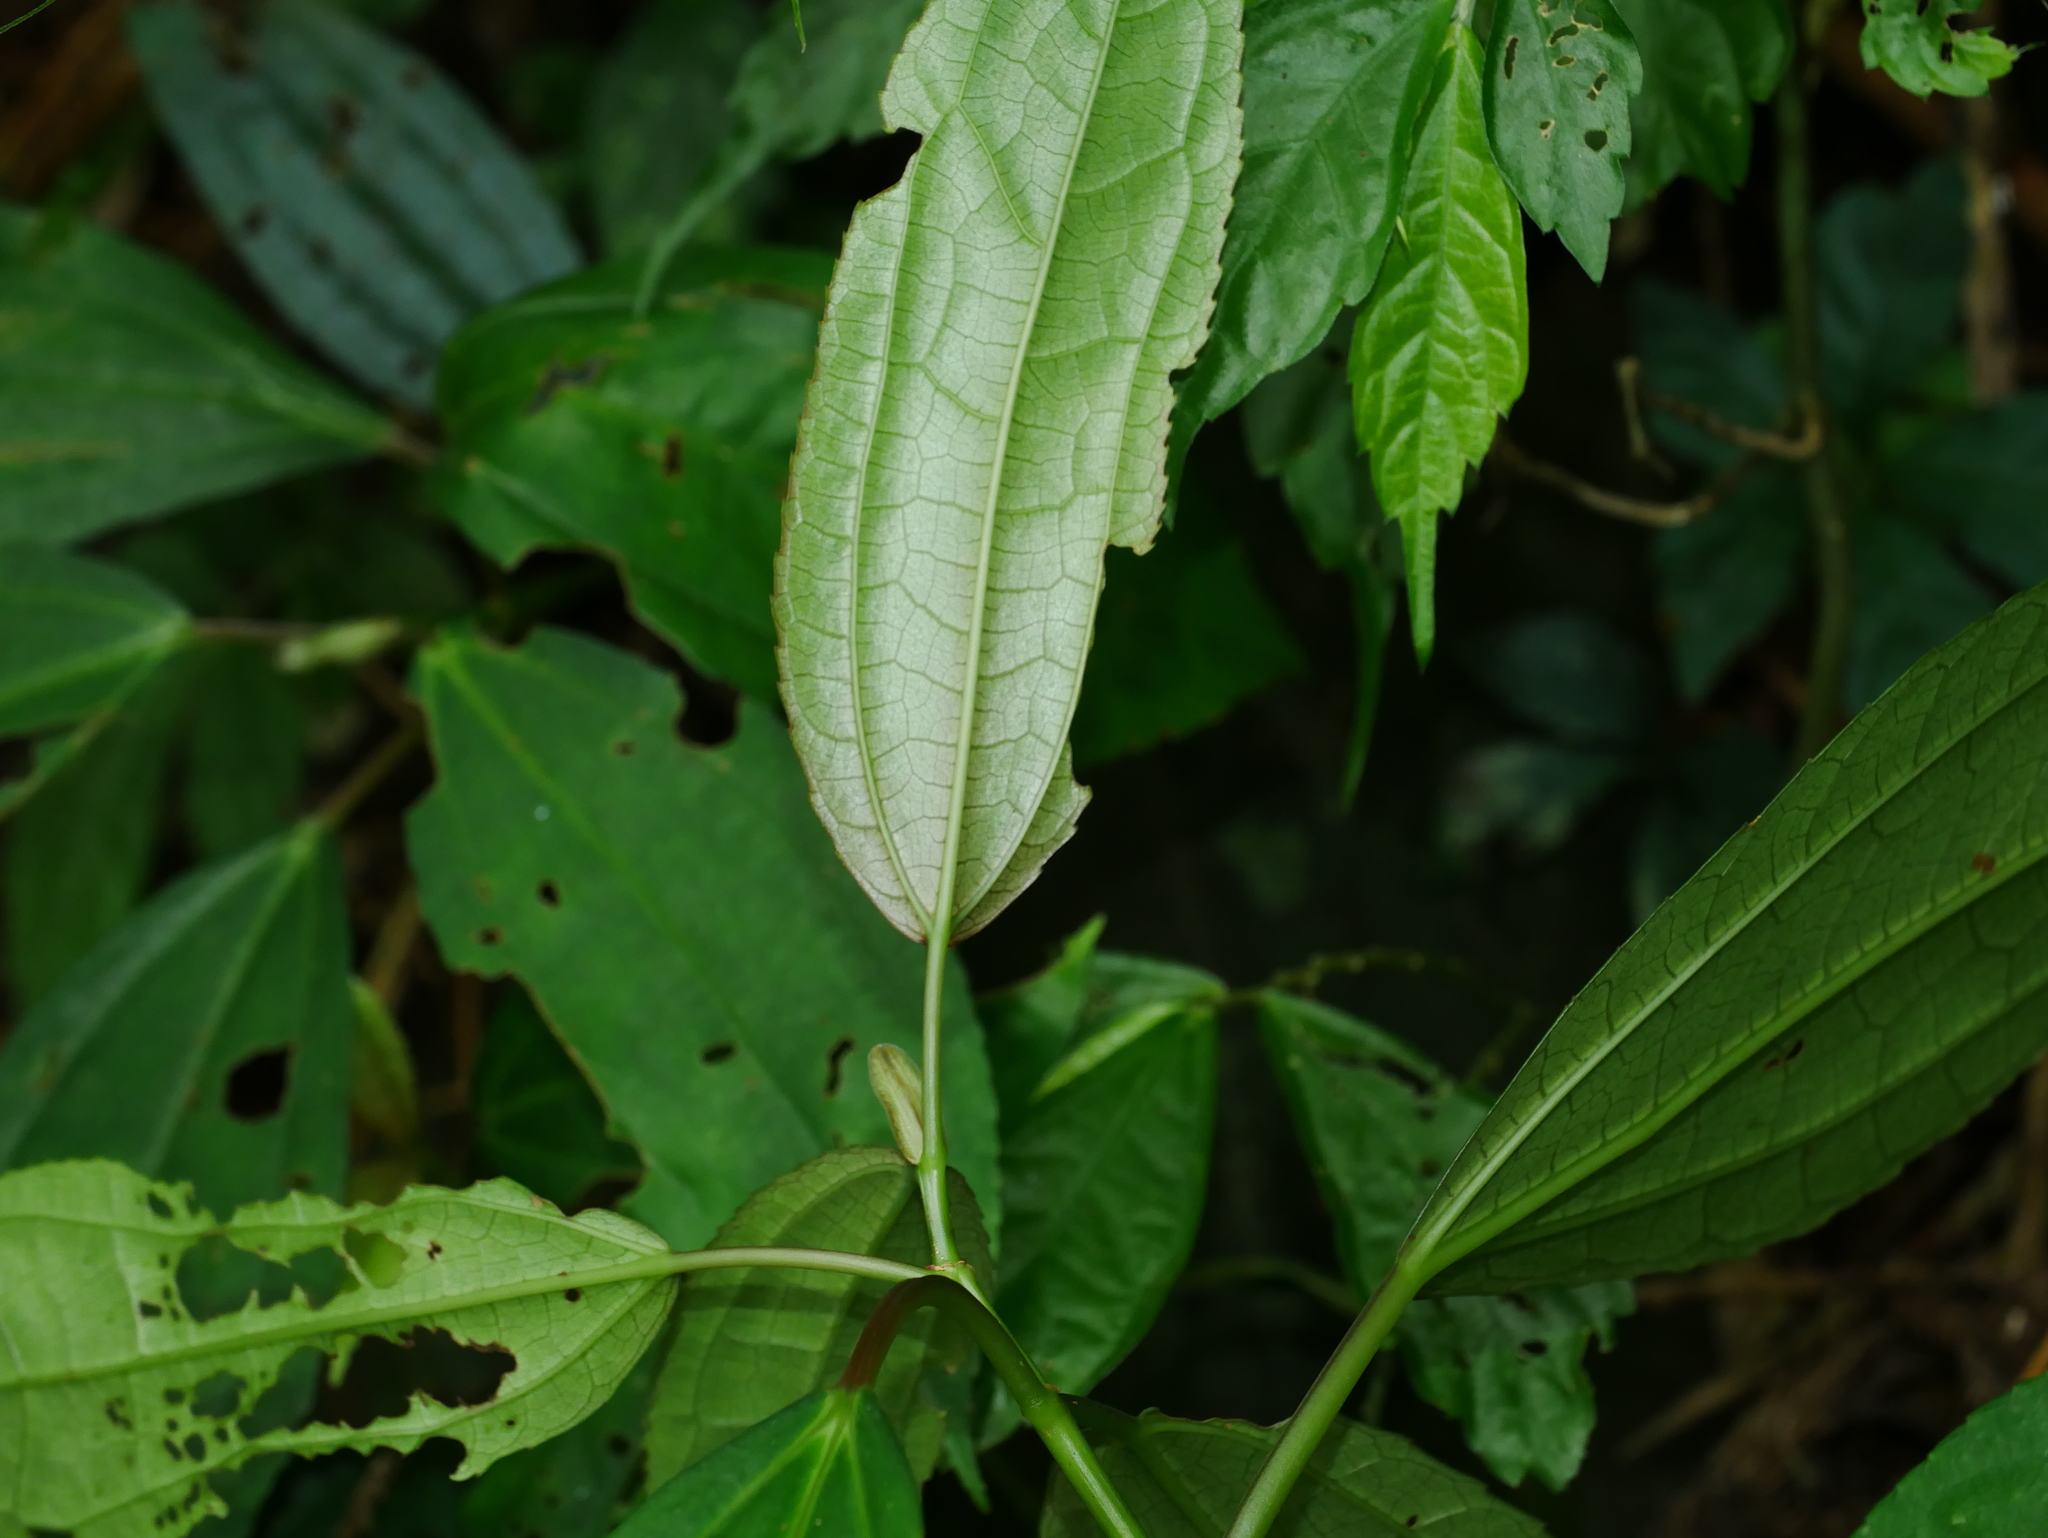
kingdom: Plantae
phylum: Tracheophyta
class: Magnoliopsida
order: Rosales
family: Urticaceae
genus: Pilea
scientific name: Pilea funkikensis
